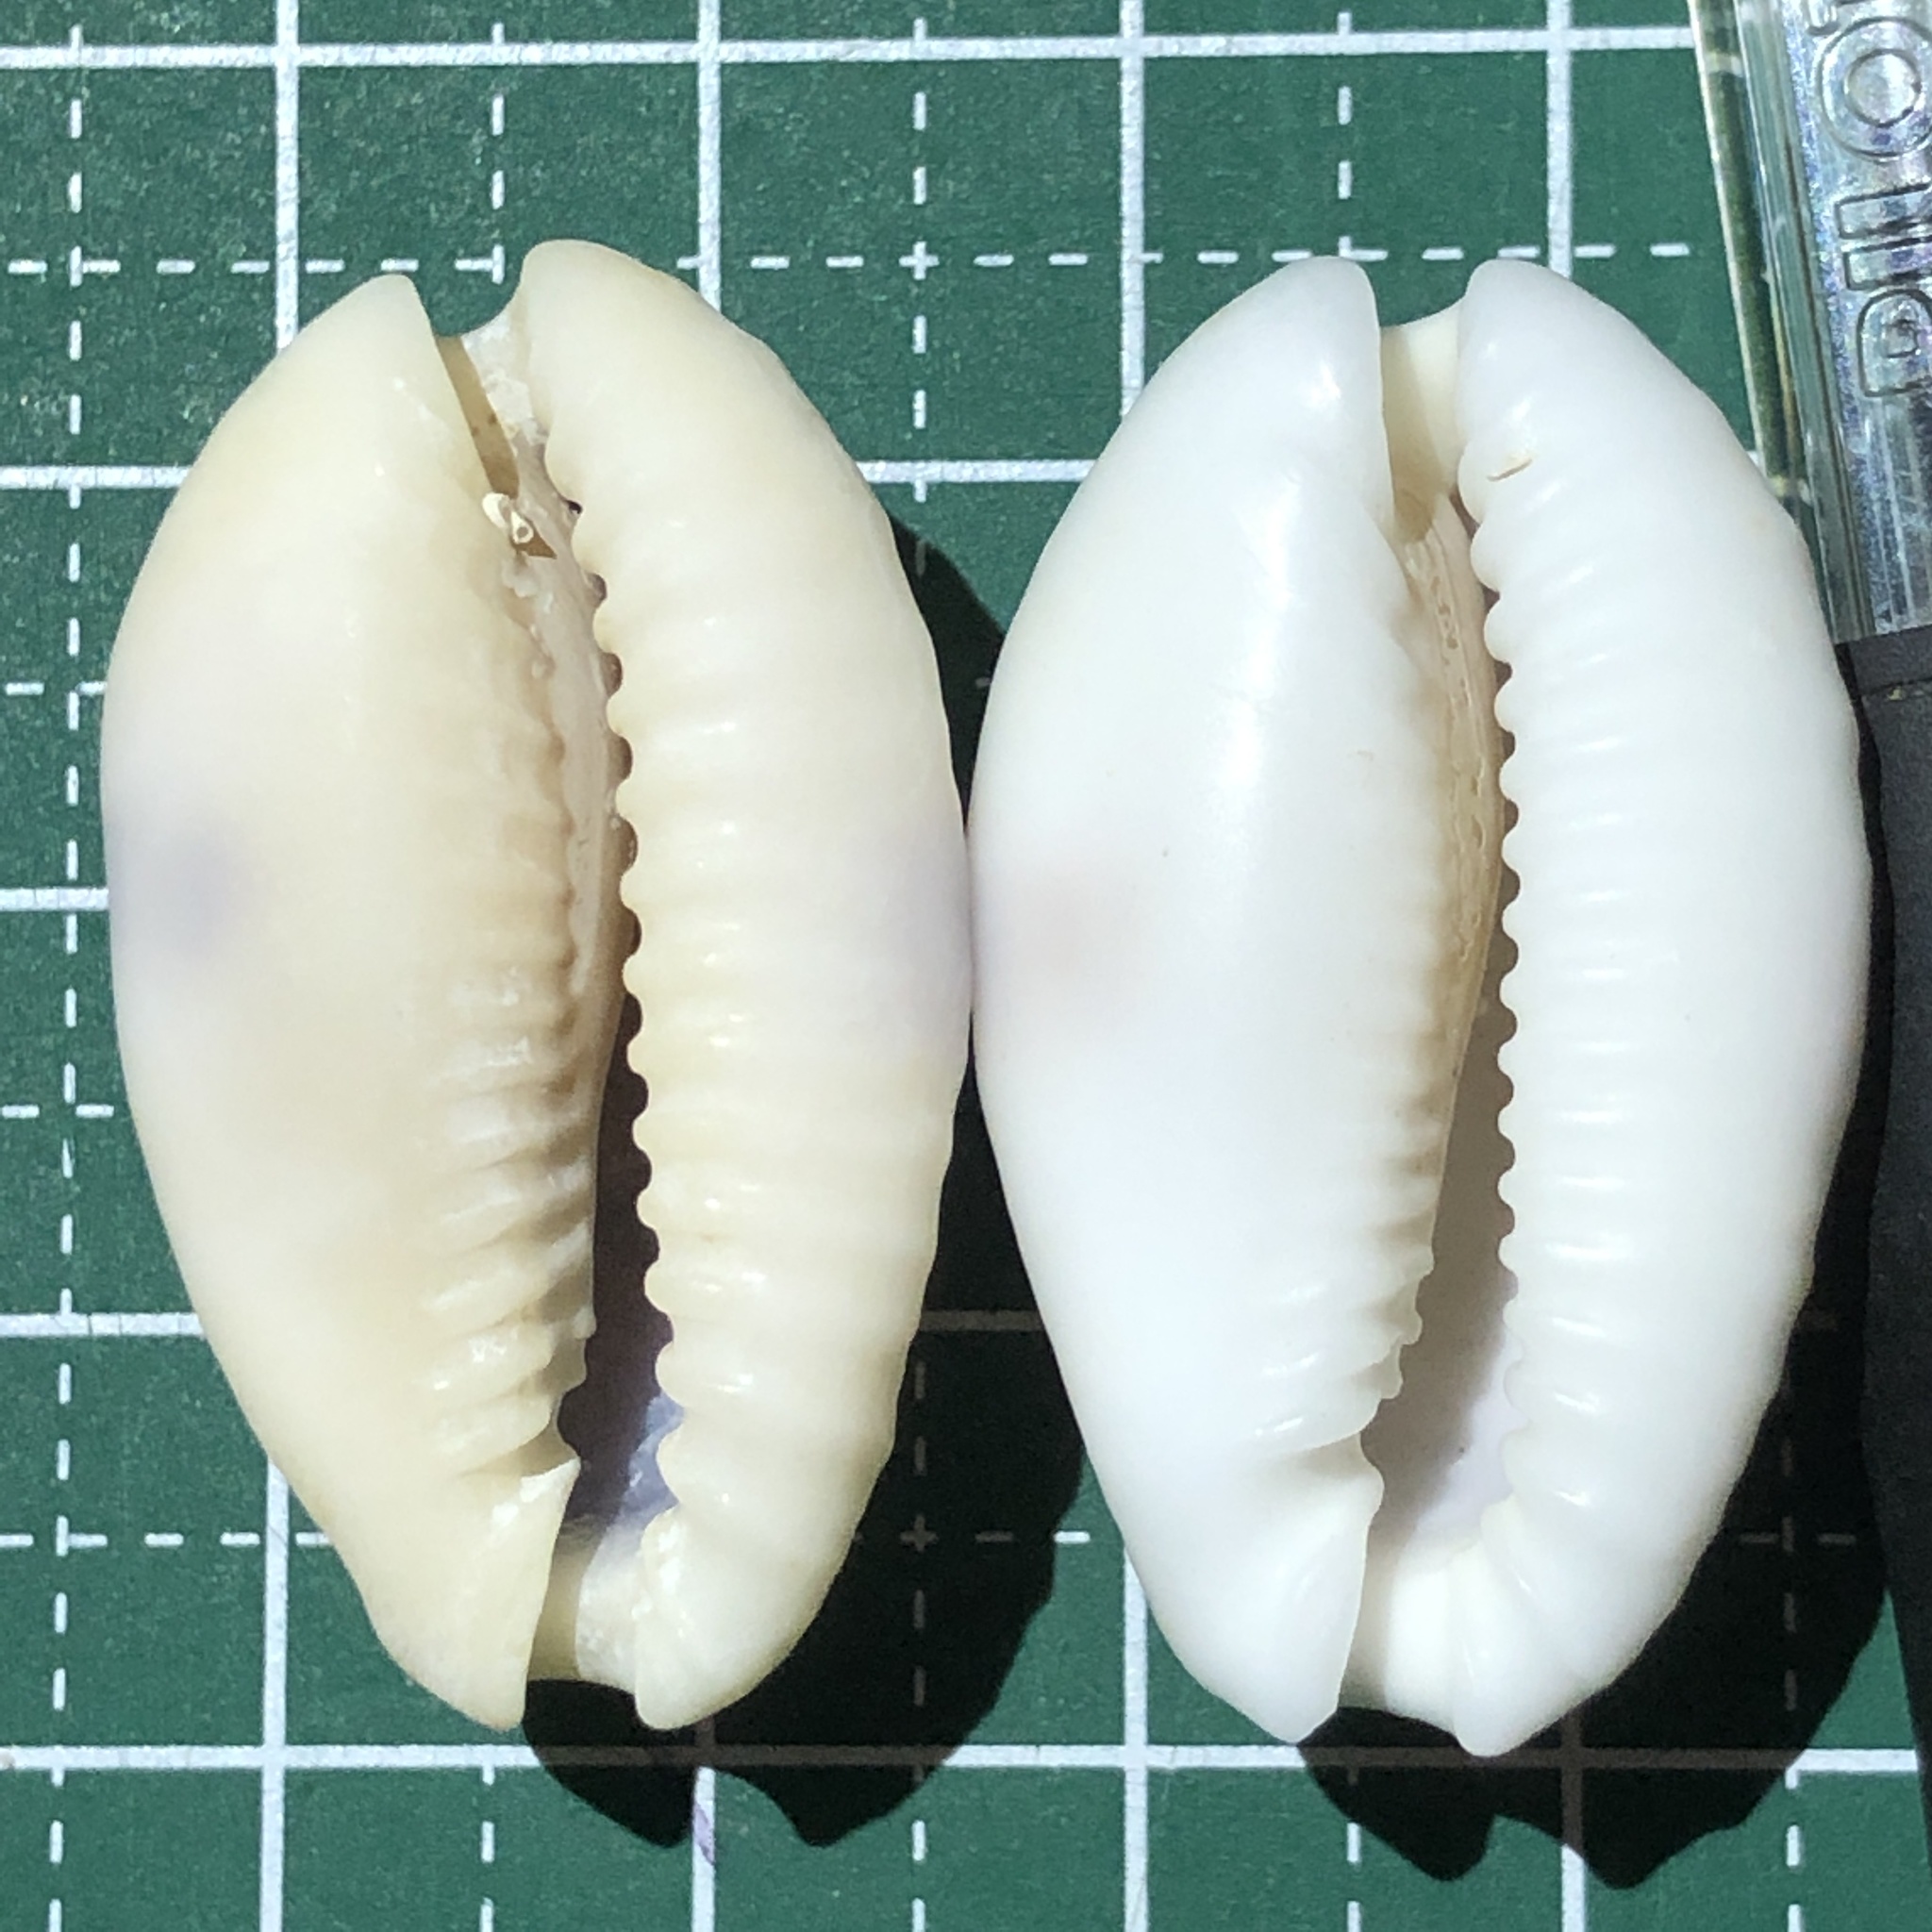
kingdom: Animalia
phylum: Mollusca
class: Gastropoda
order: Littorinimorpha
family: Cypraeidae
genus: Naria
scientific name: Naria erosa
